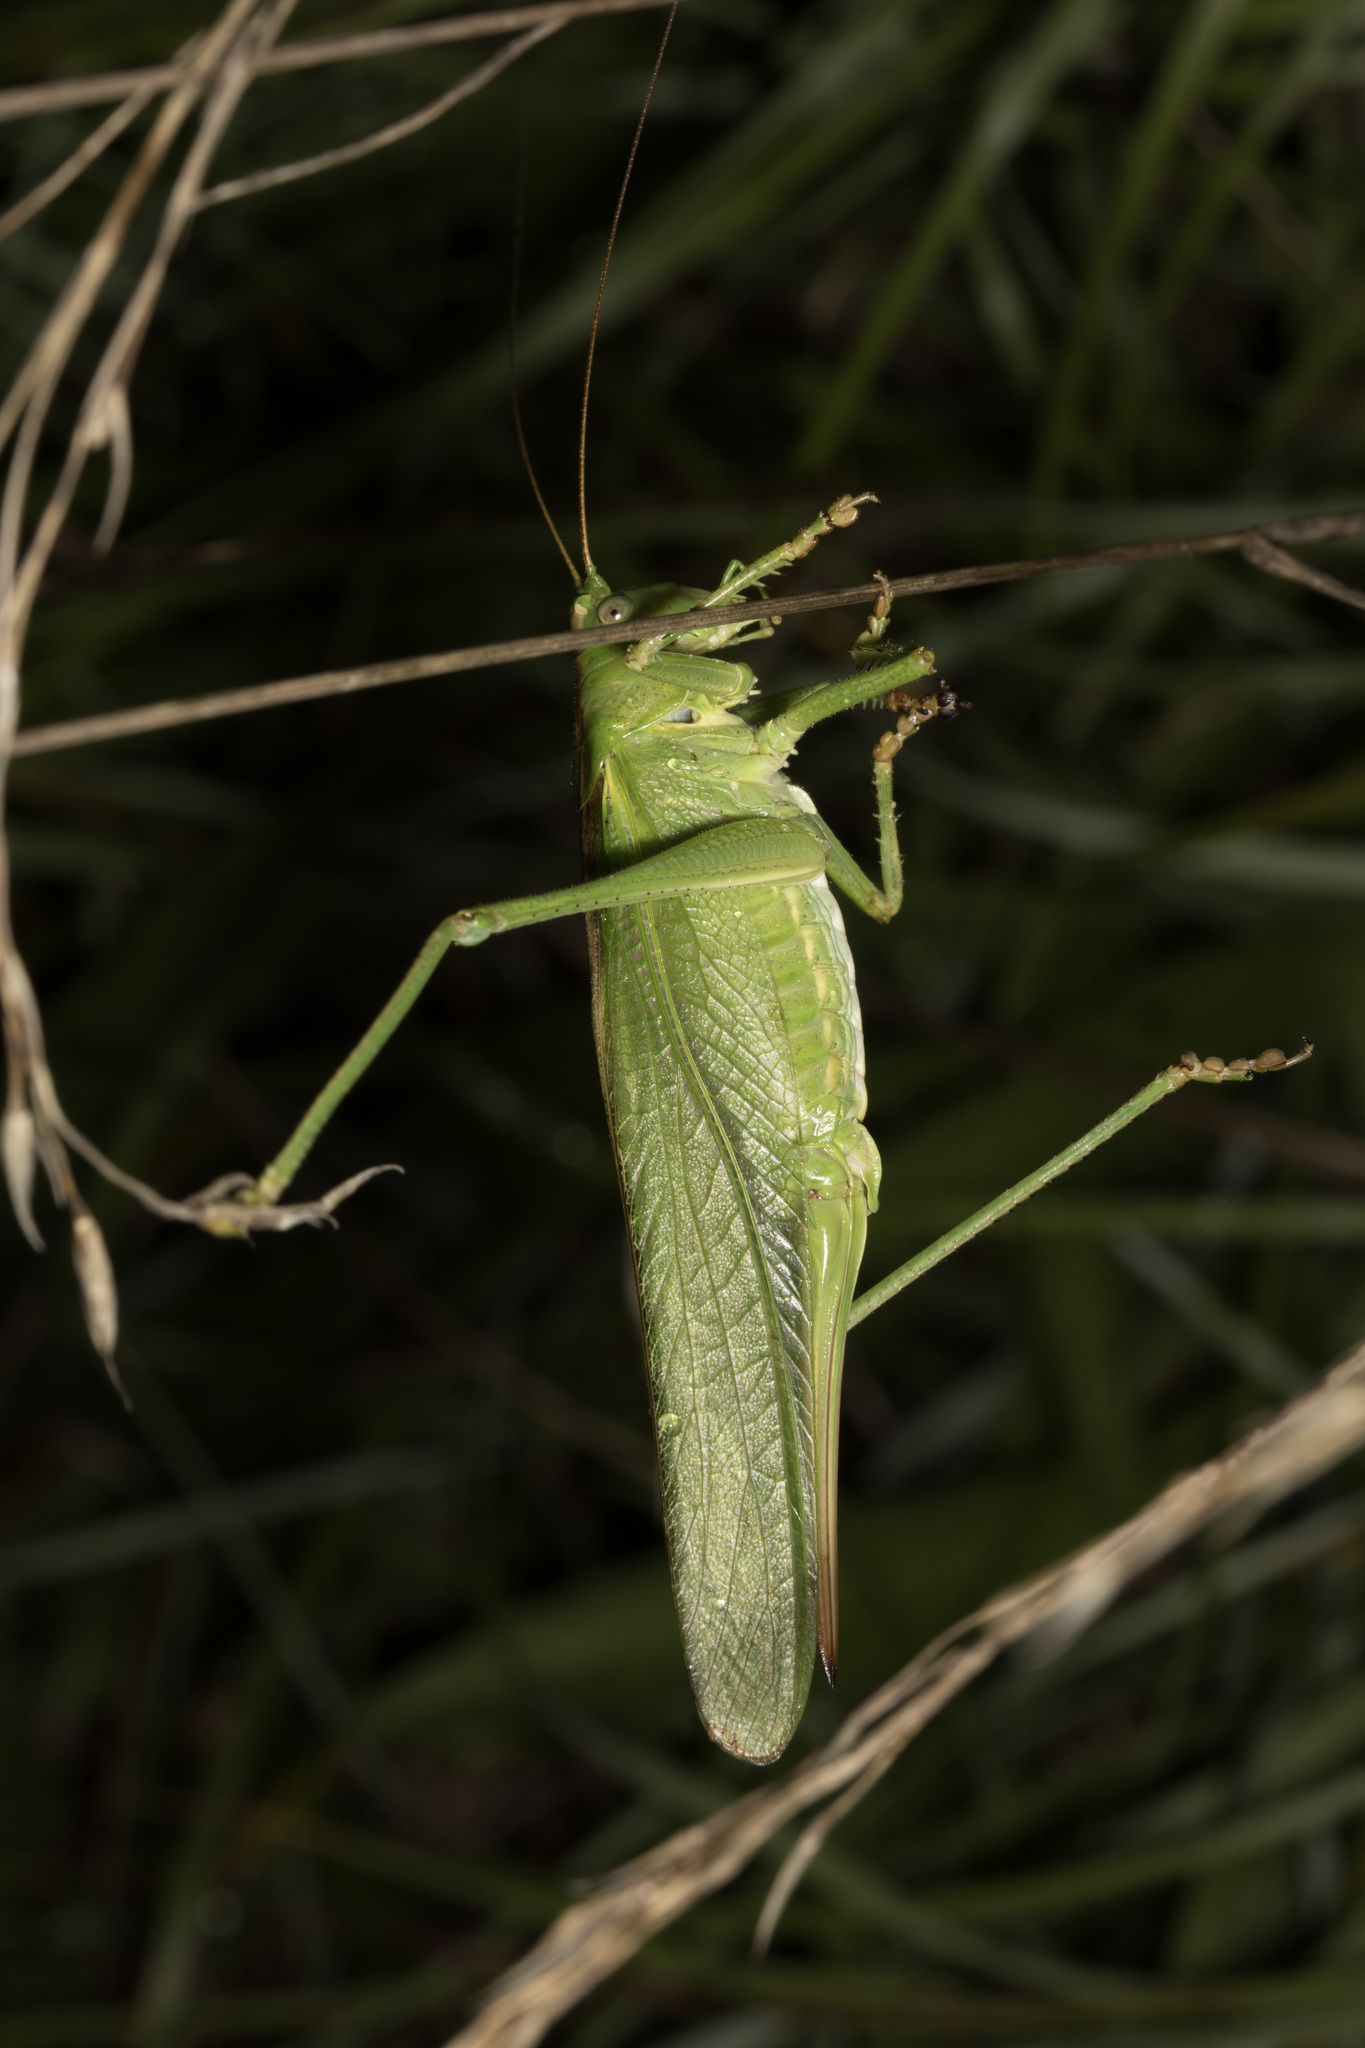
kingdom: Animalia
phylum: Arthropoda
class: Insecta
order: Orthoptera
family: Tettigoniidae
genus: Tettigonia
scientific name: Tettigonia viridissima
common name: Great green bush-cricket
